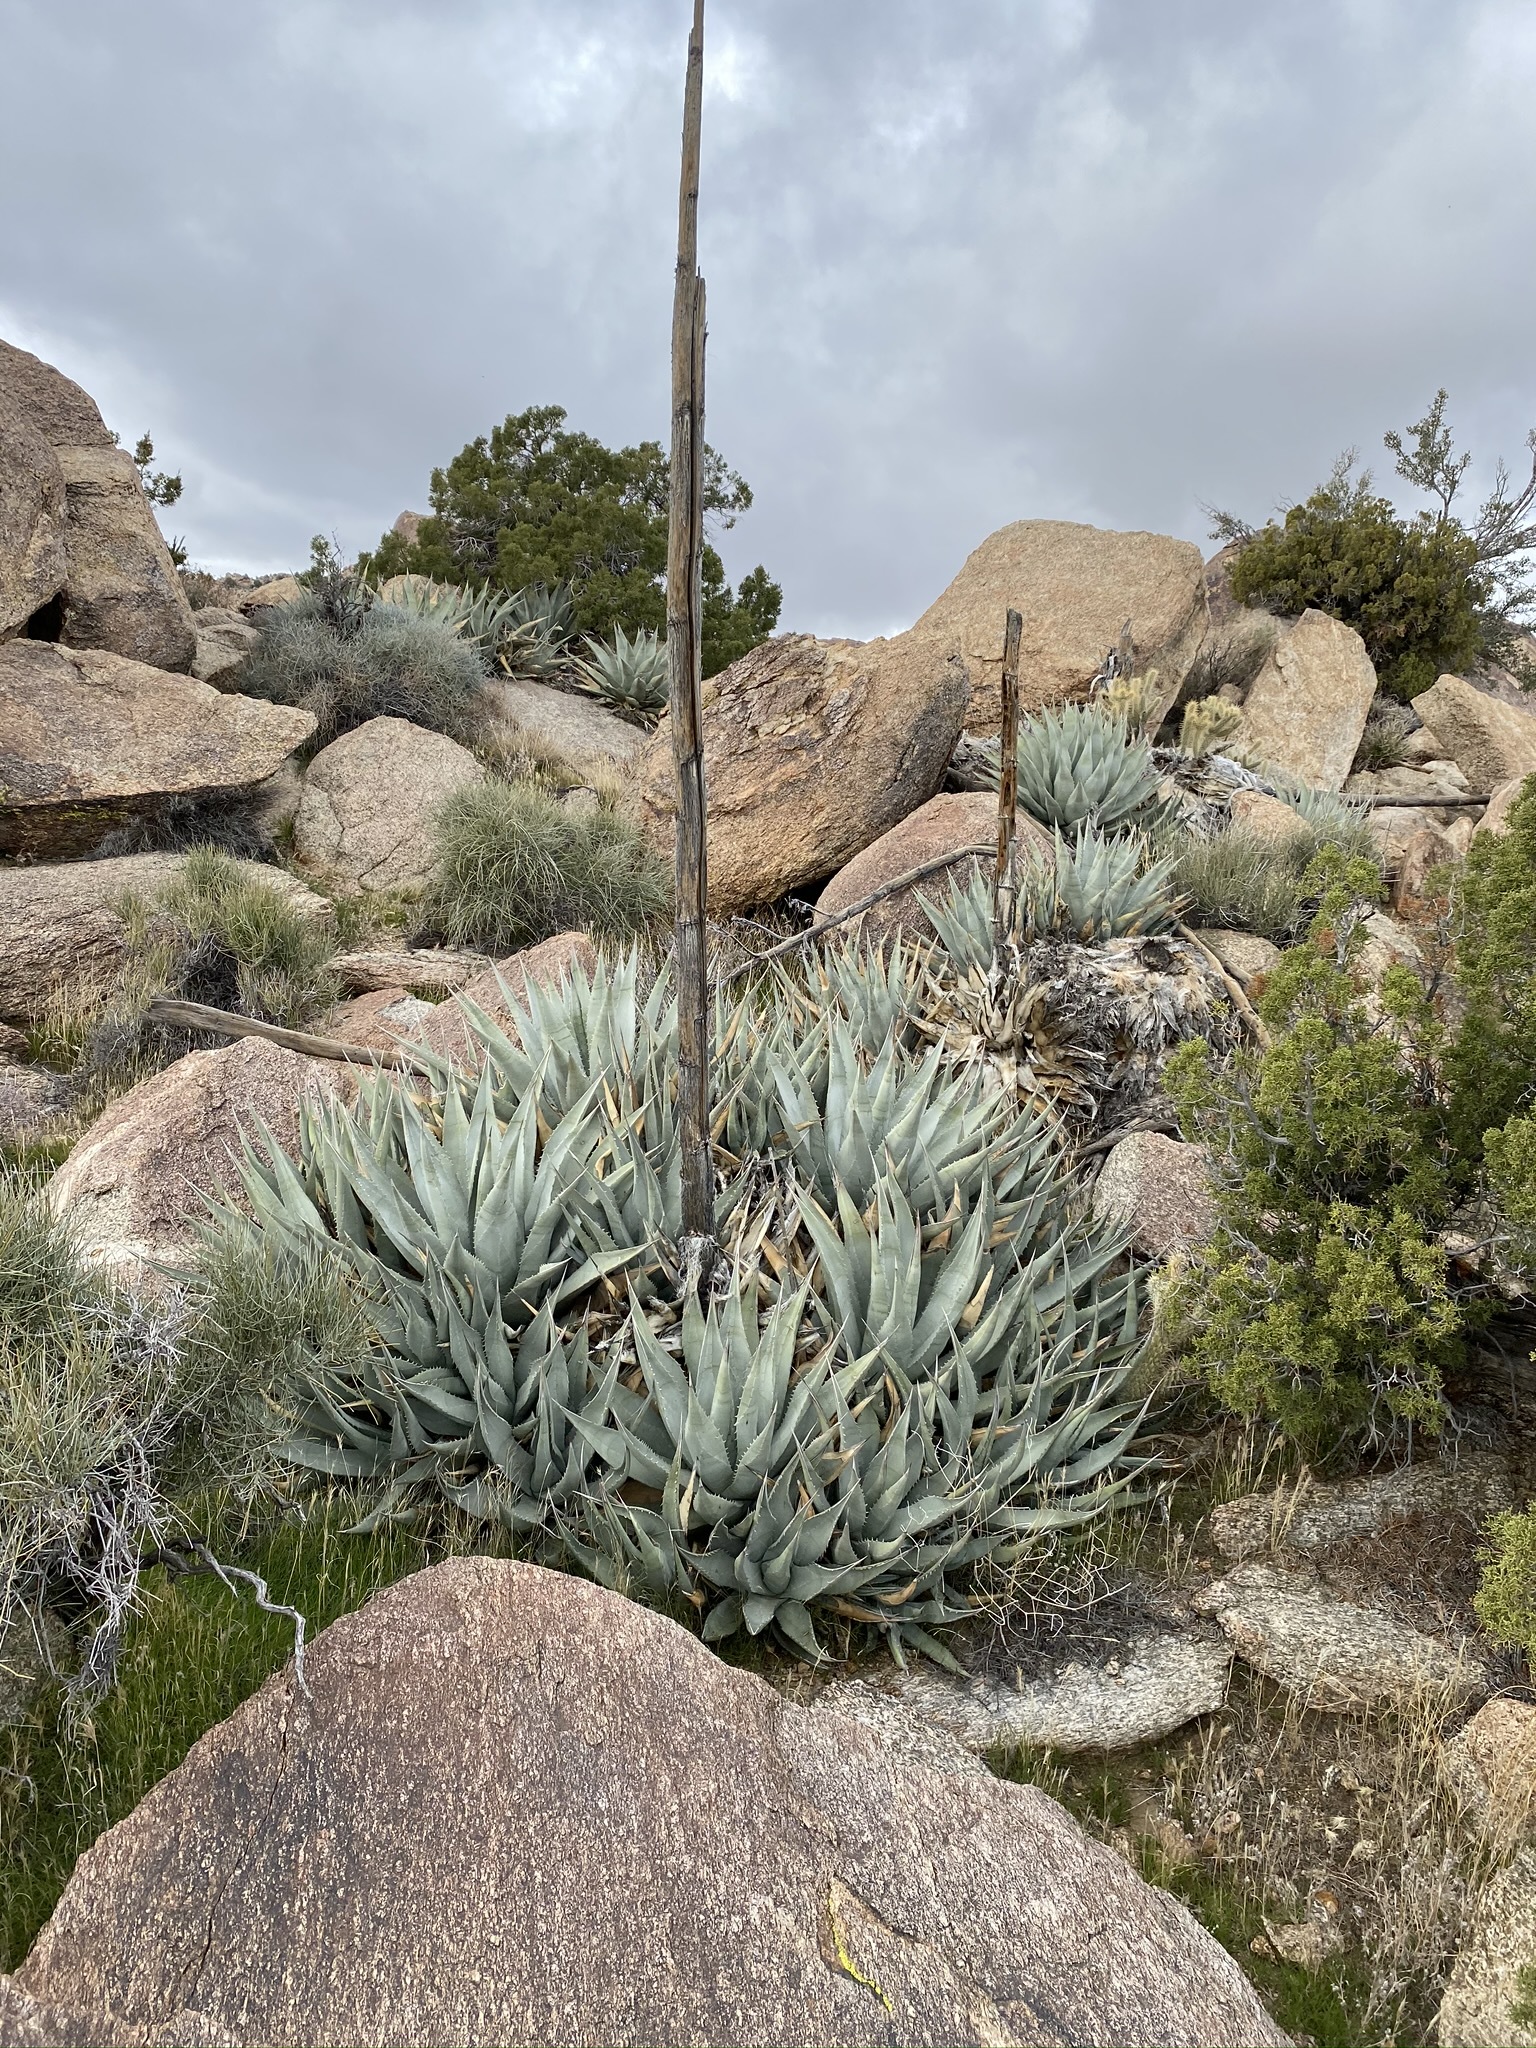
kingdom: Plantae
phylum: Tracheophyta
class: Liliopsida
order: Asparagales
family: Asparagaceae
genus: Agave
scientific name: Agave deserti
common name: Desert agave
